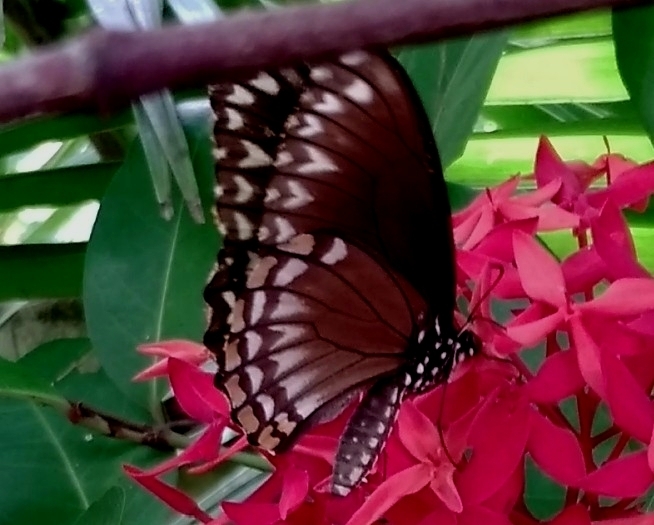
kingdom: Animalia
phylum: Arthropoda
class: Insecta
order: Lepidoptera
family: Papilionidae
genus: Chilasa
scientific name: Chilasa clytia
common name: Common mime
